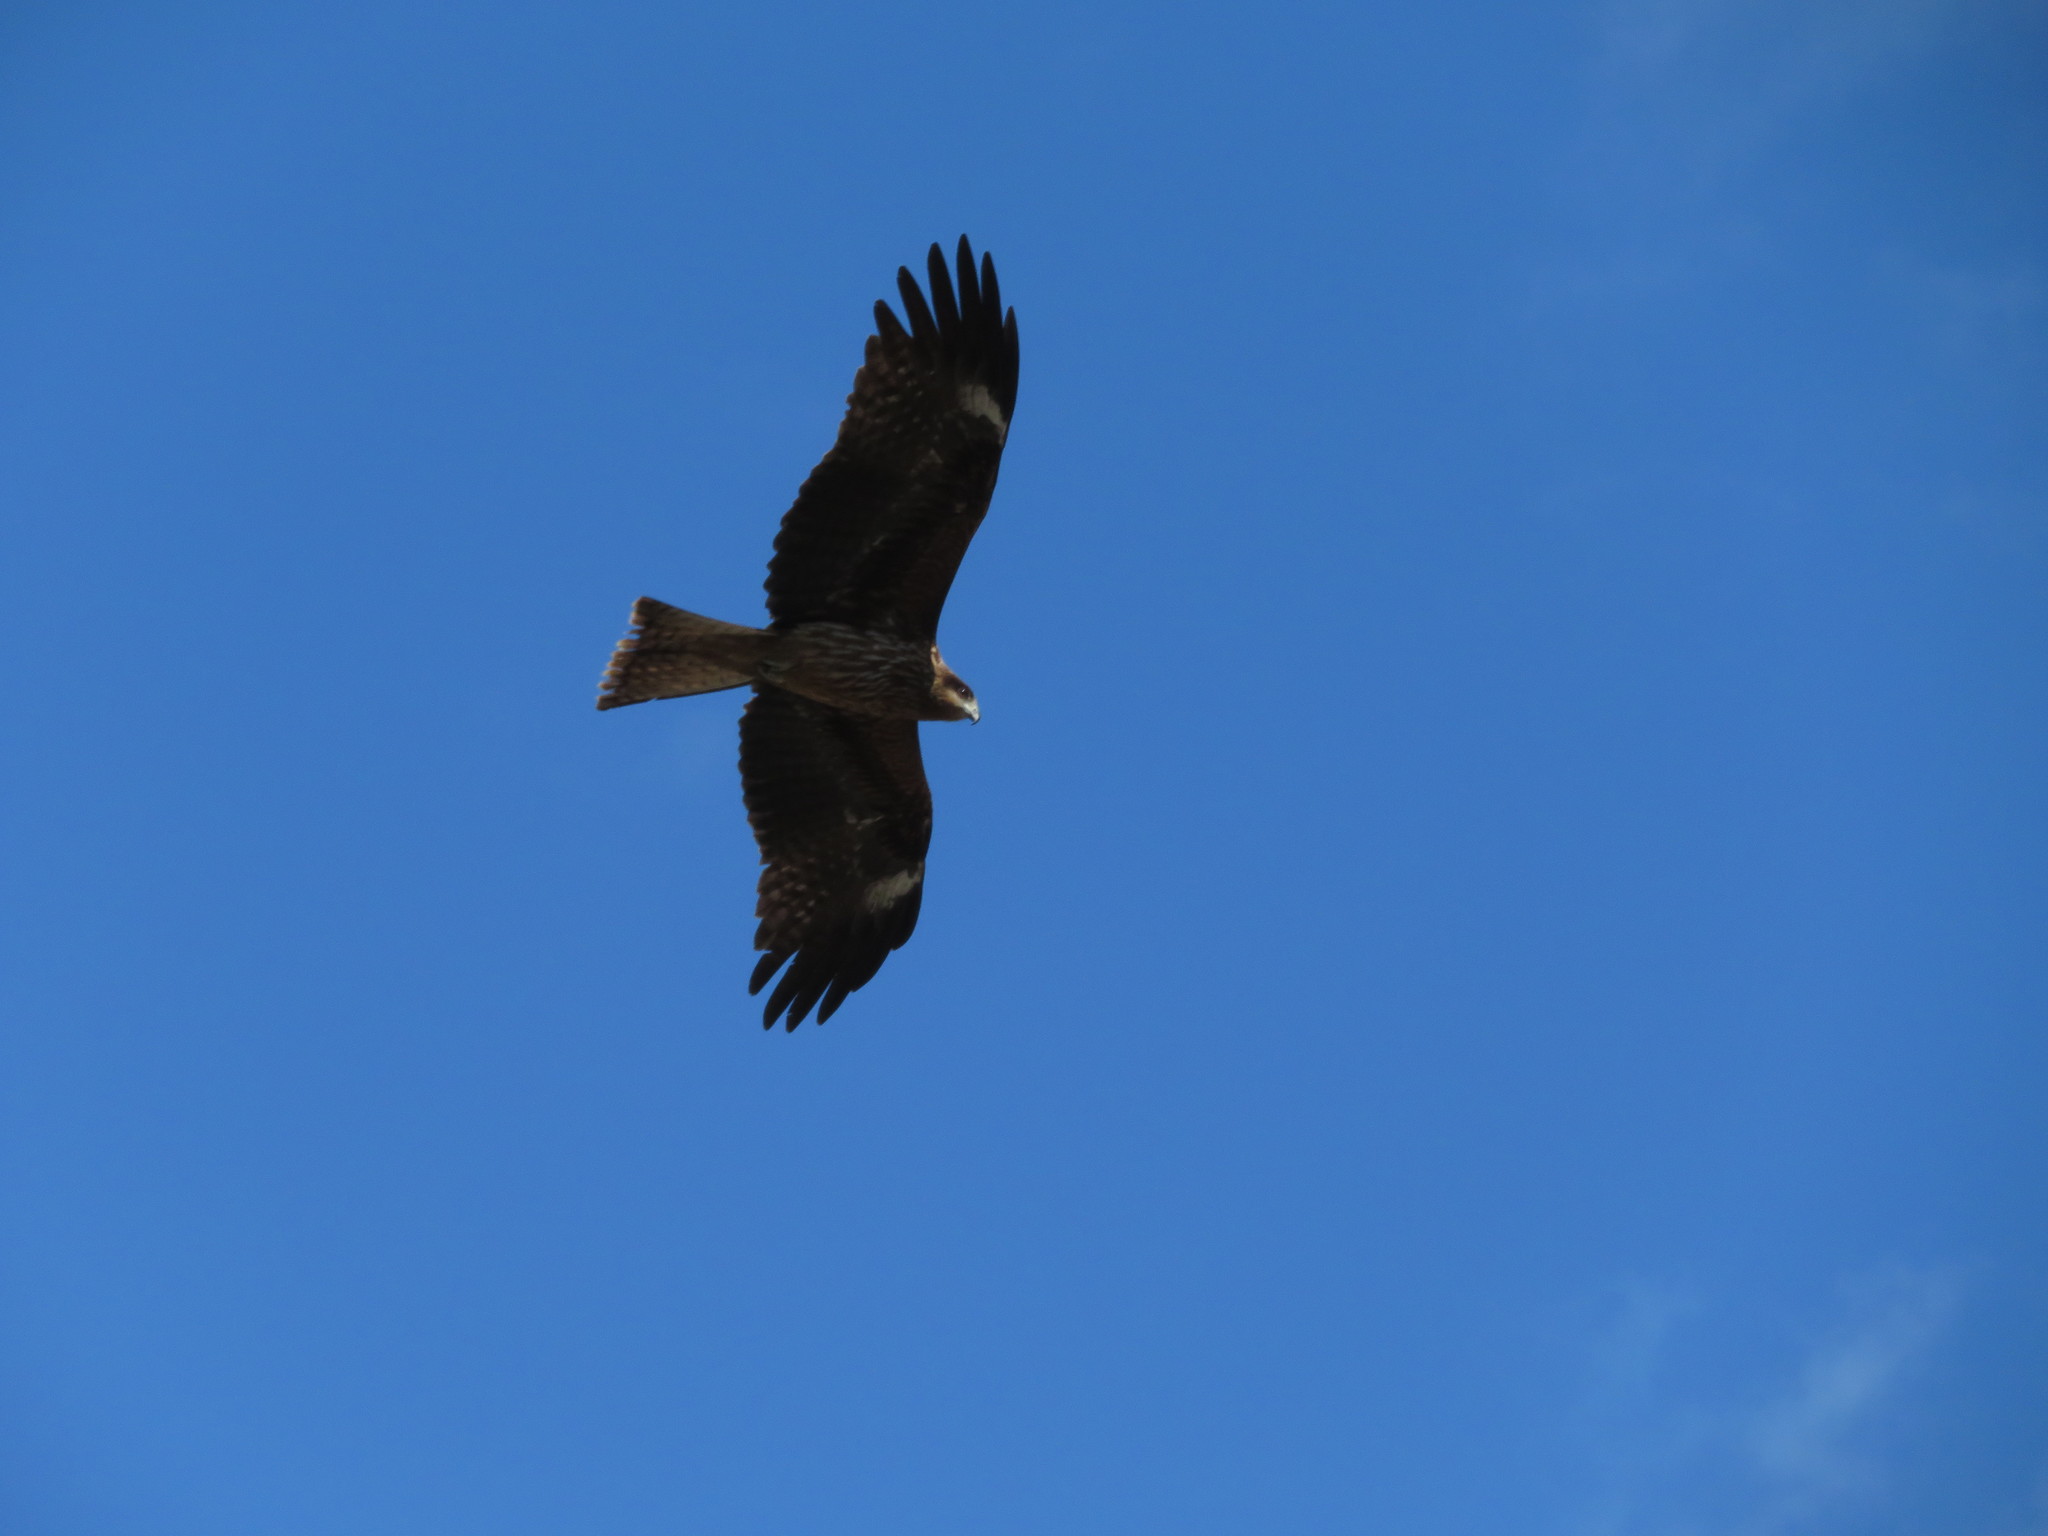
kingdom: Animalia
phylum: Chordata
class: Aves
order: Accipitriformes
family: Accipitridae
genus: Milvus
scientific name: Milvus migrans
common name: Black kite
